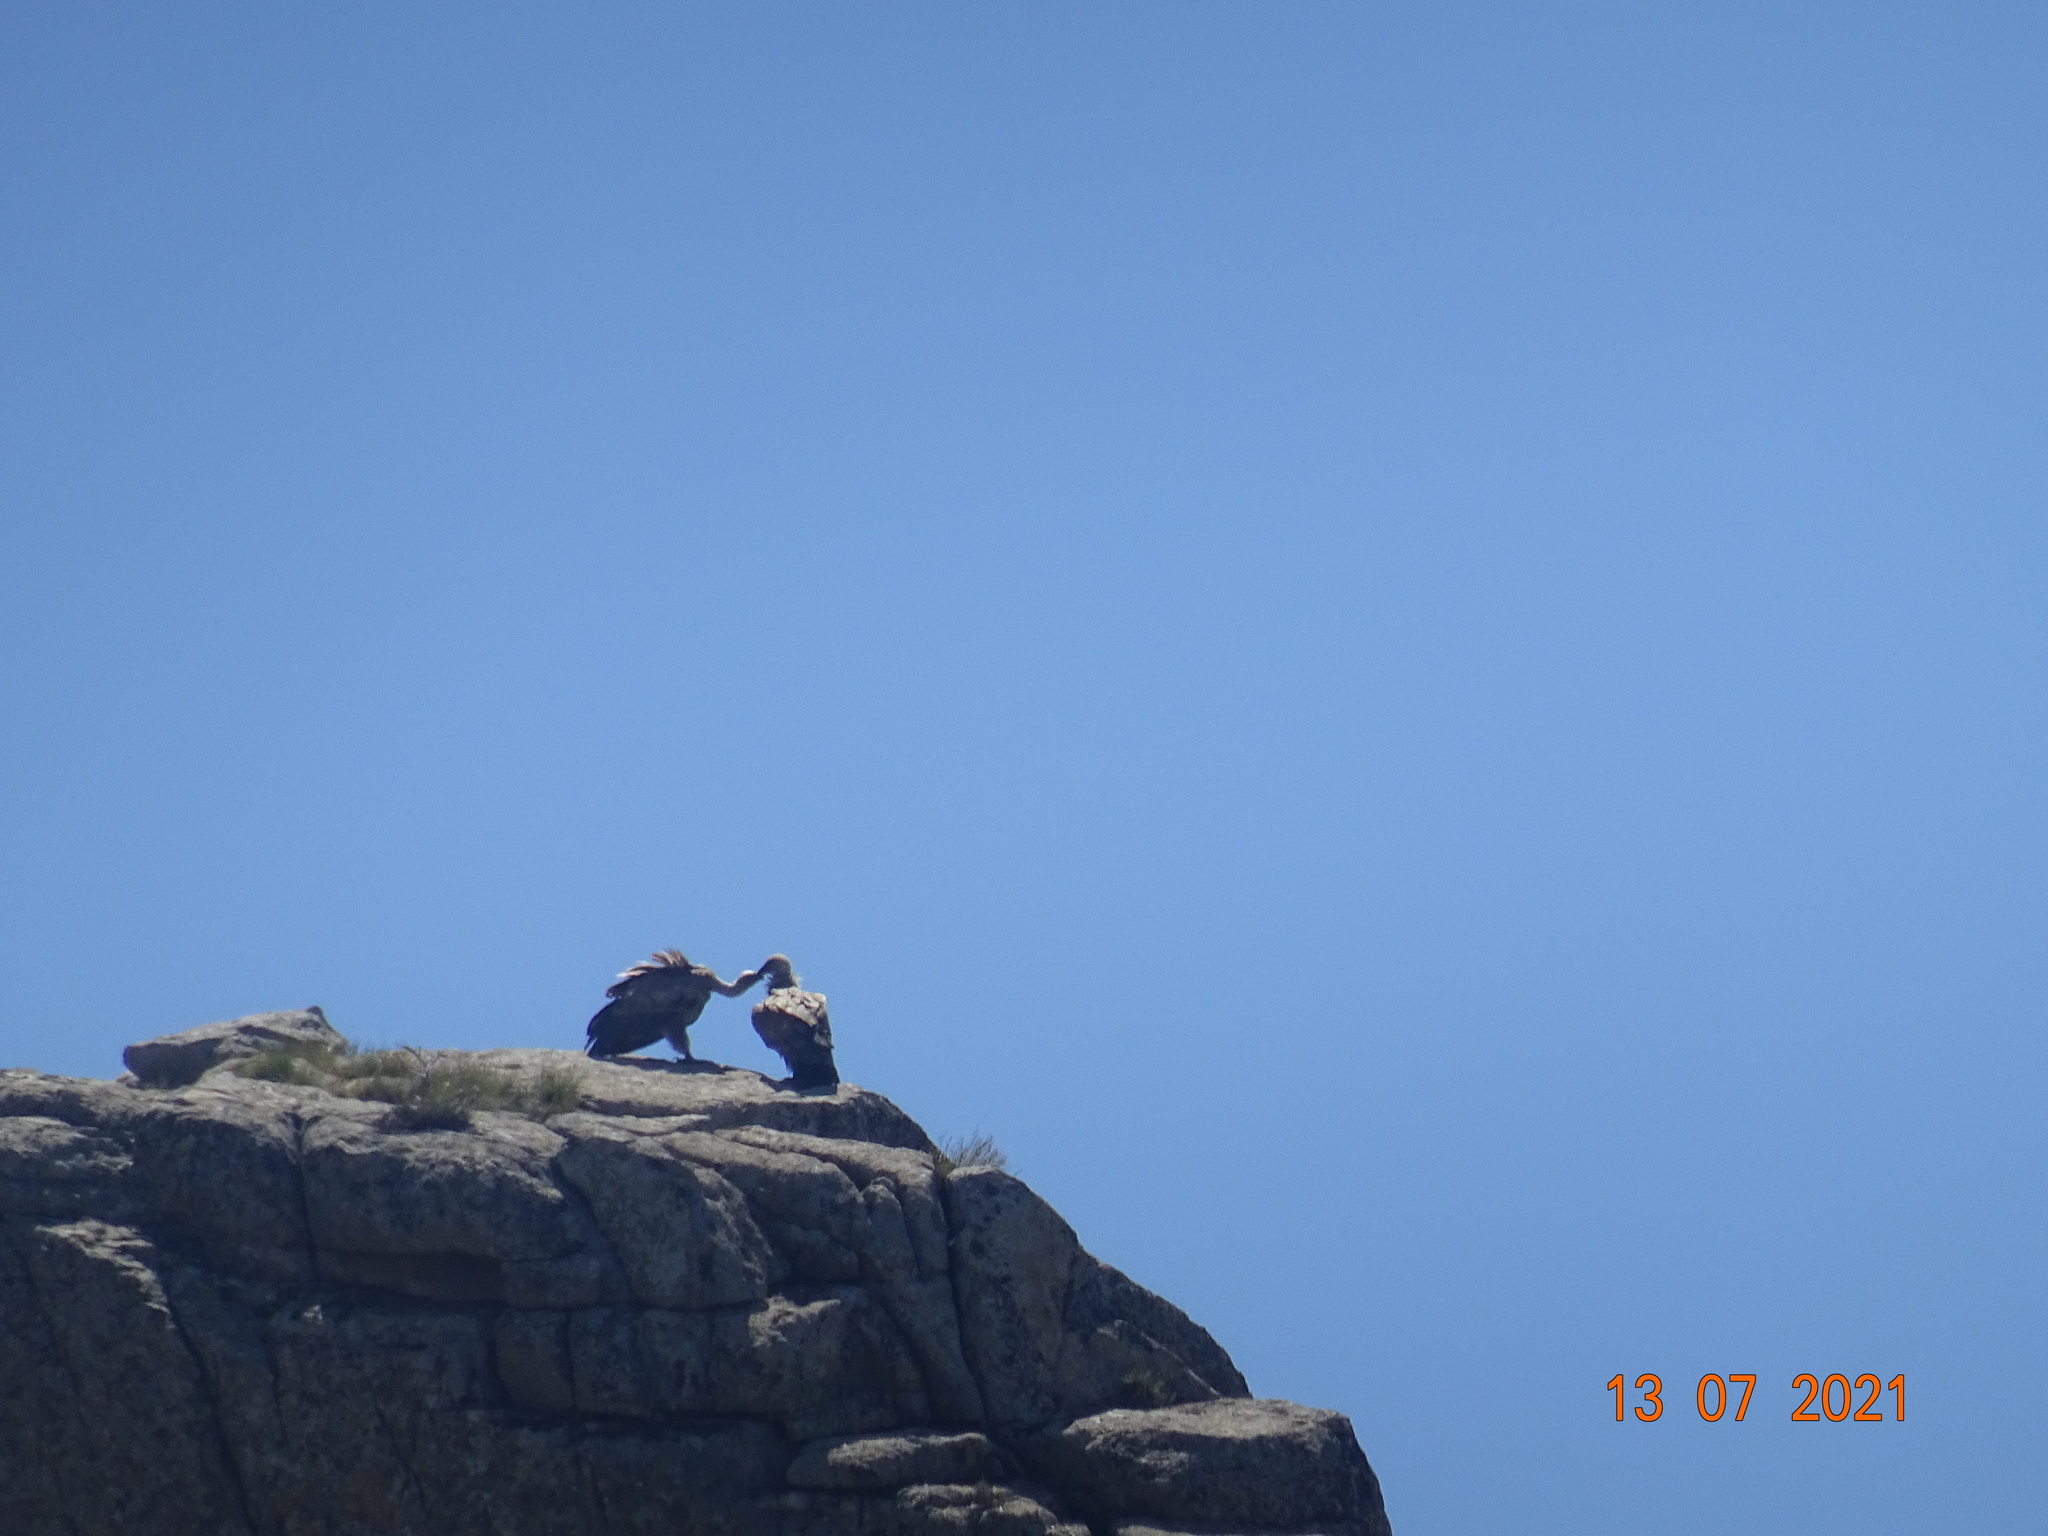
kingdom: Animalia
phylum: Chordata
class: Aves
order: Accipitriformes
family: Accipitridae
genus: Gyps
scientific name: Gyps fulvus
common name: Griffon vulture
